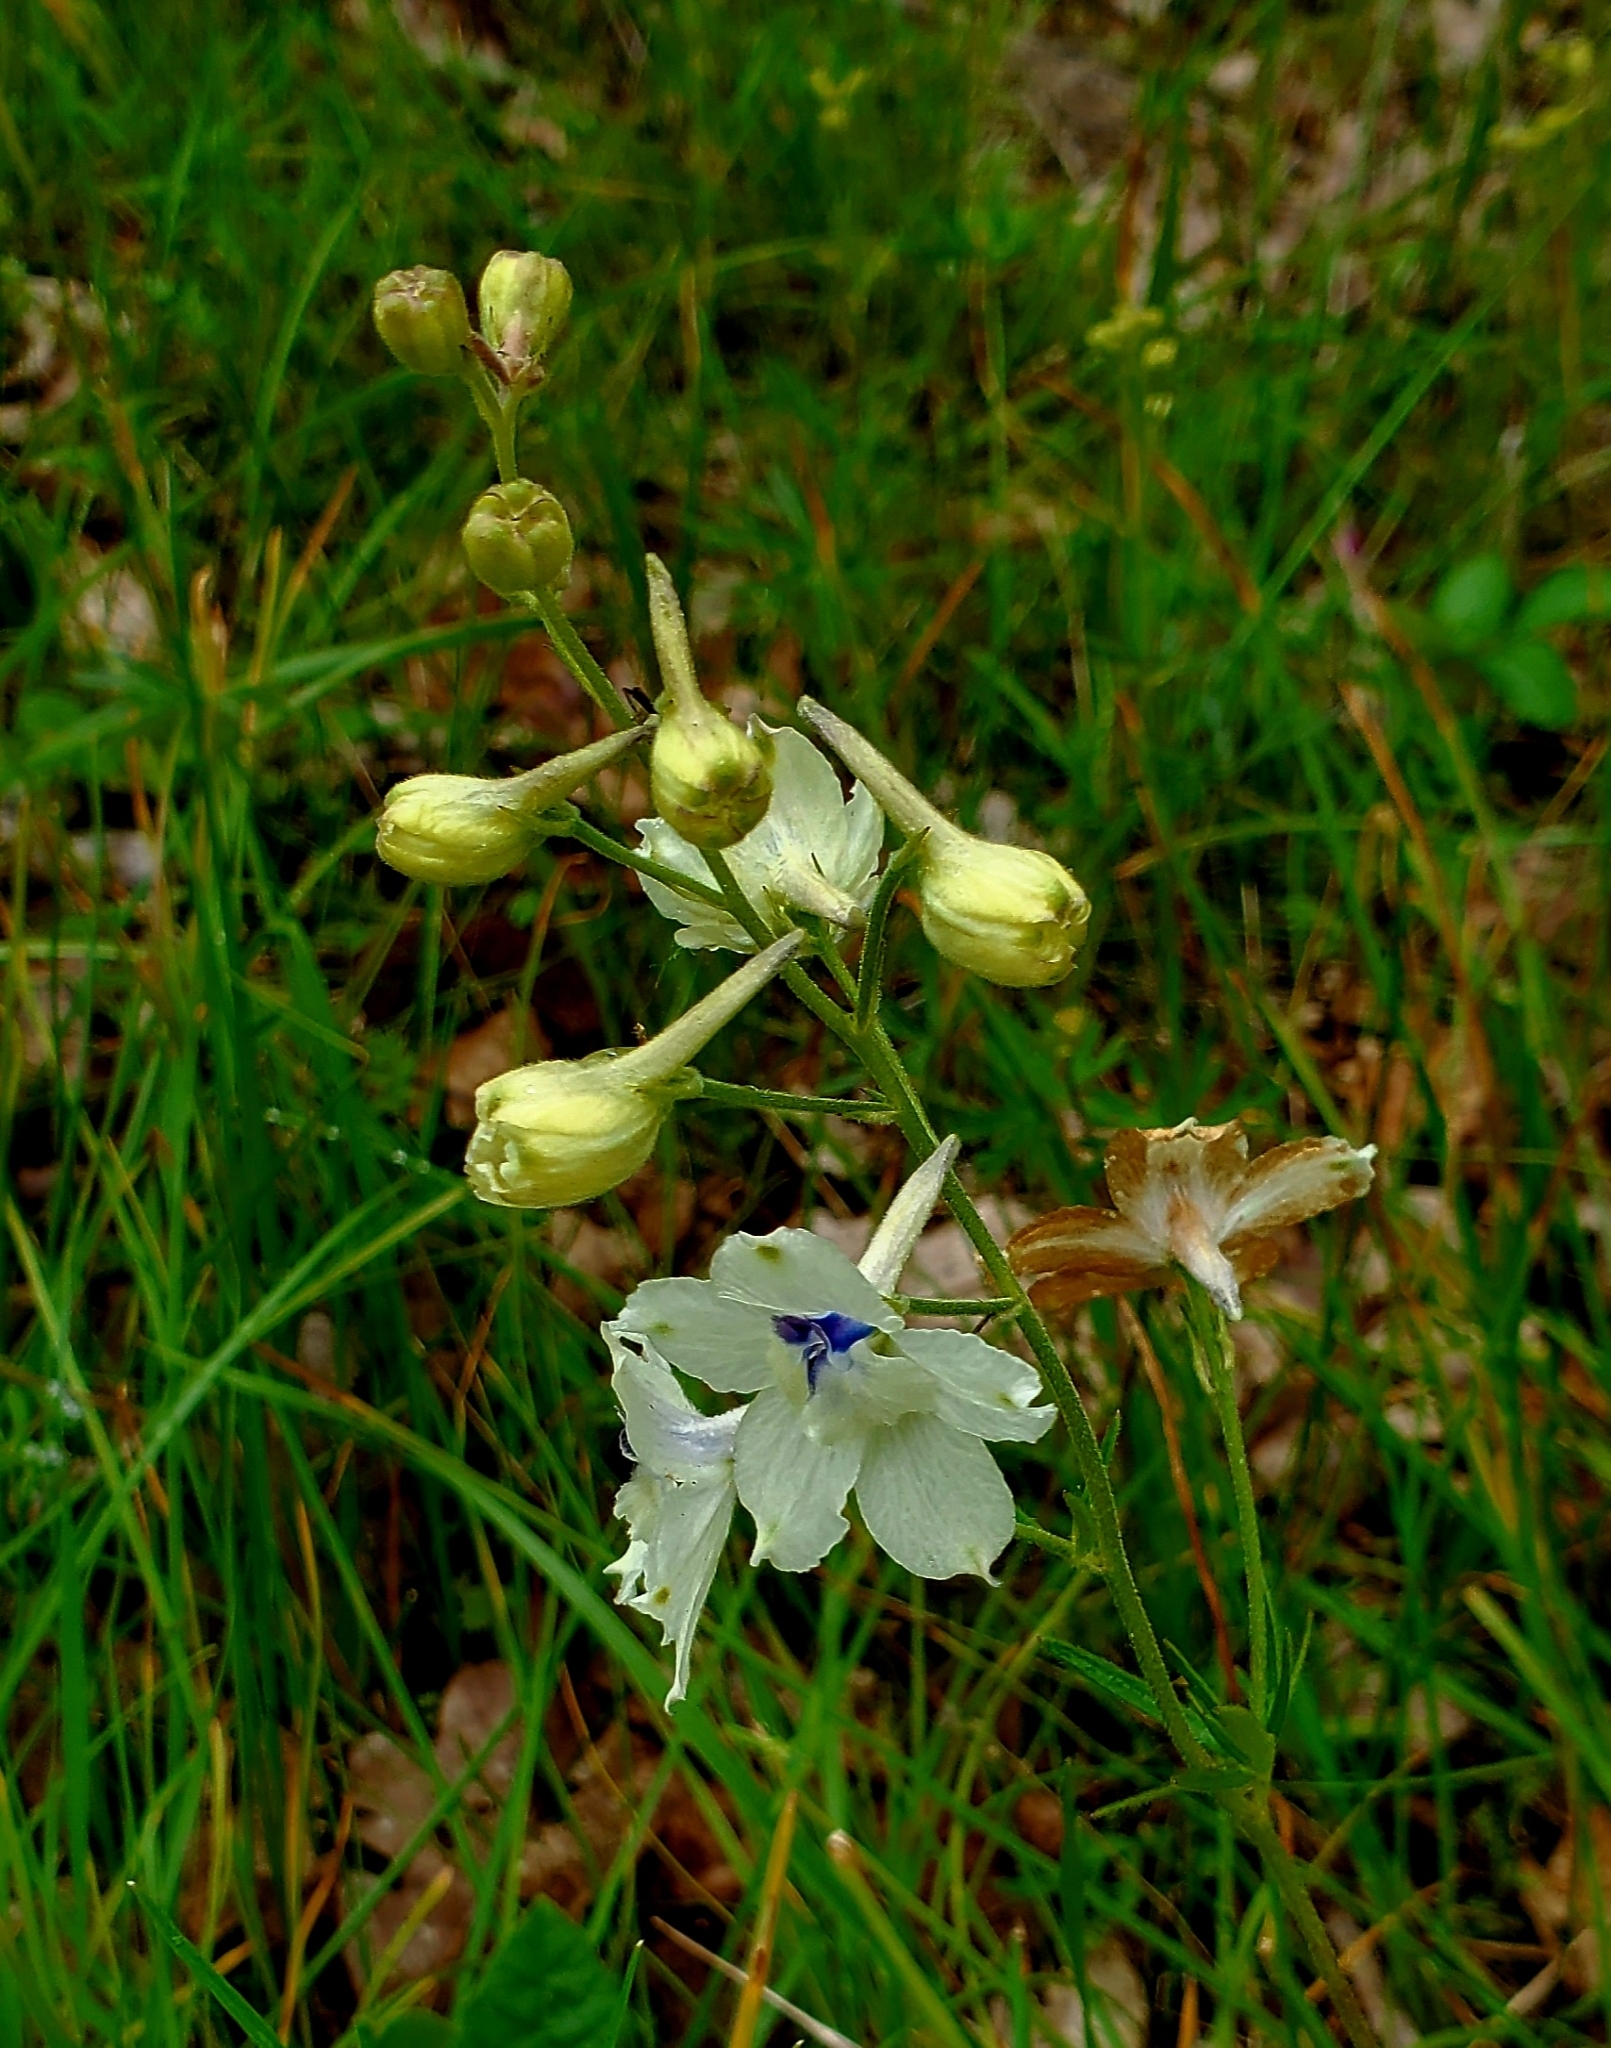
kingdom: Plantae
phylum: Tracheophyta
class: Magnoliopsida
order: Ranunculales
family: Ranunculaceae
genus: Delphinium
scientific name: Delphinium pavonaceum
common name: Peacock larkspur
